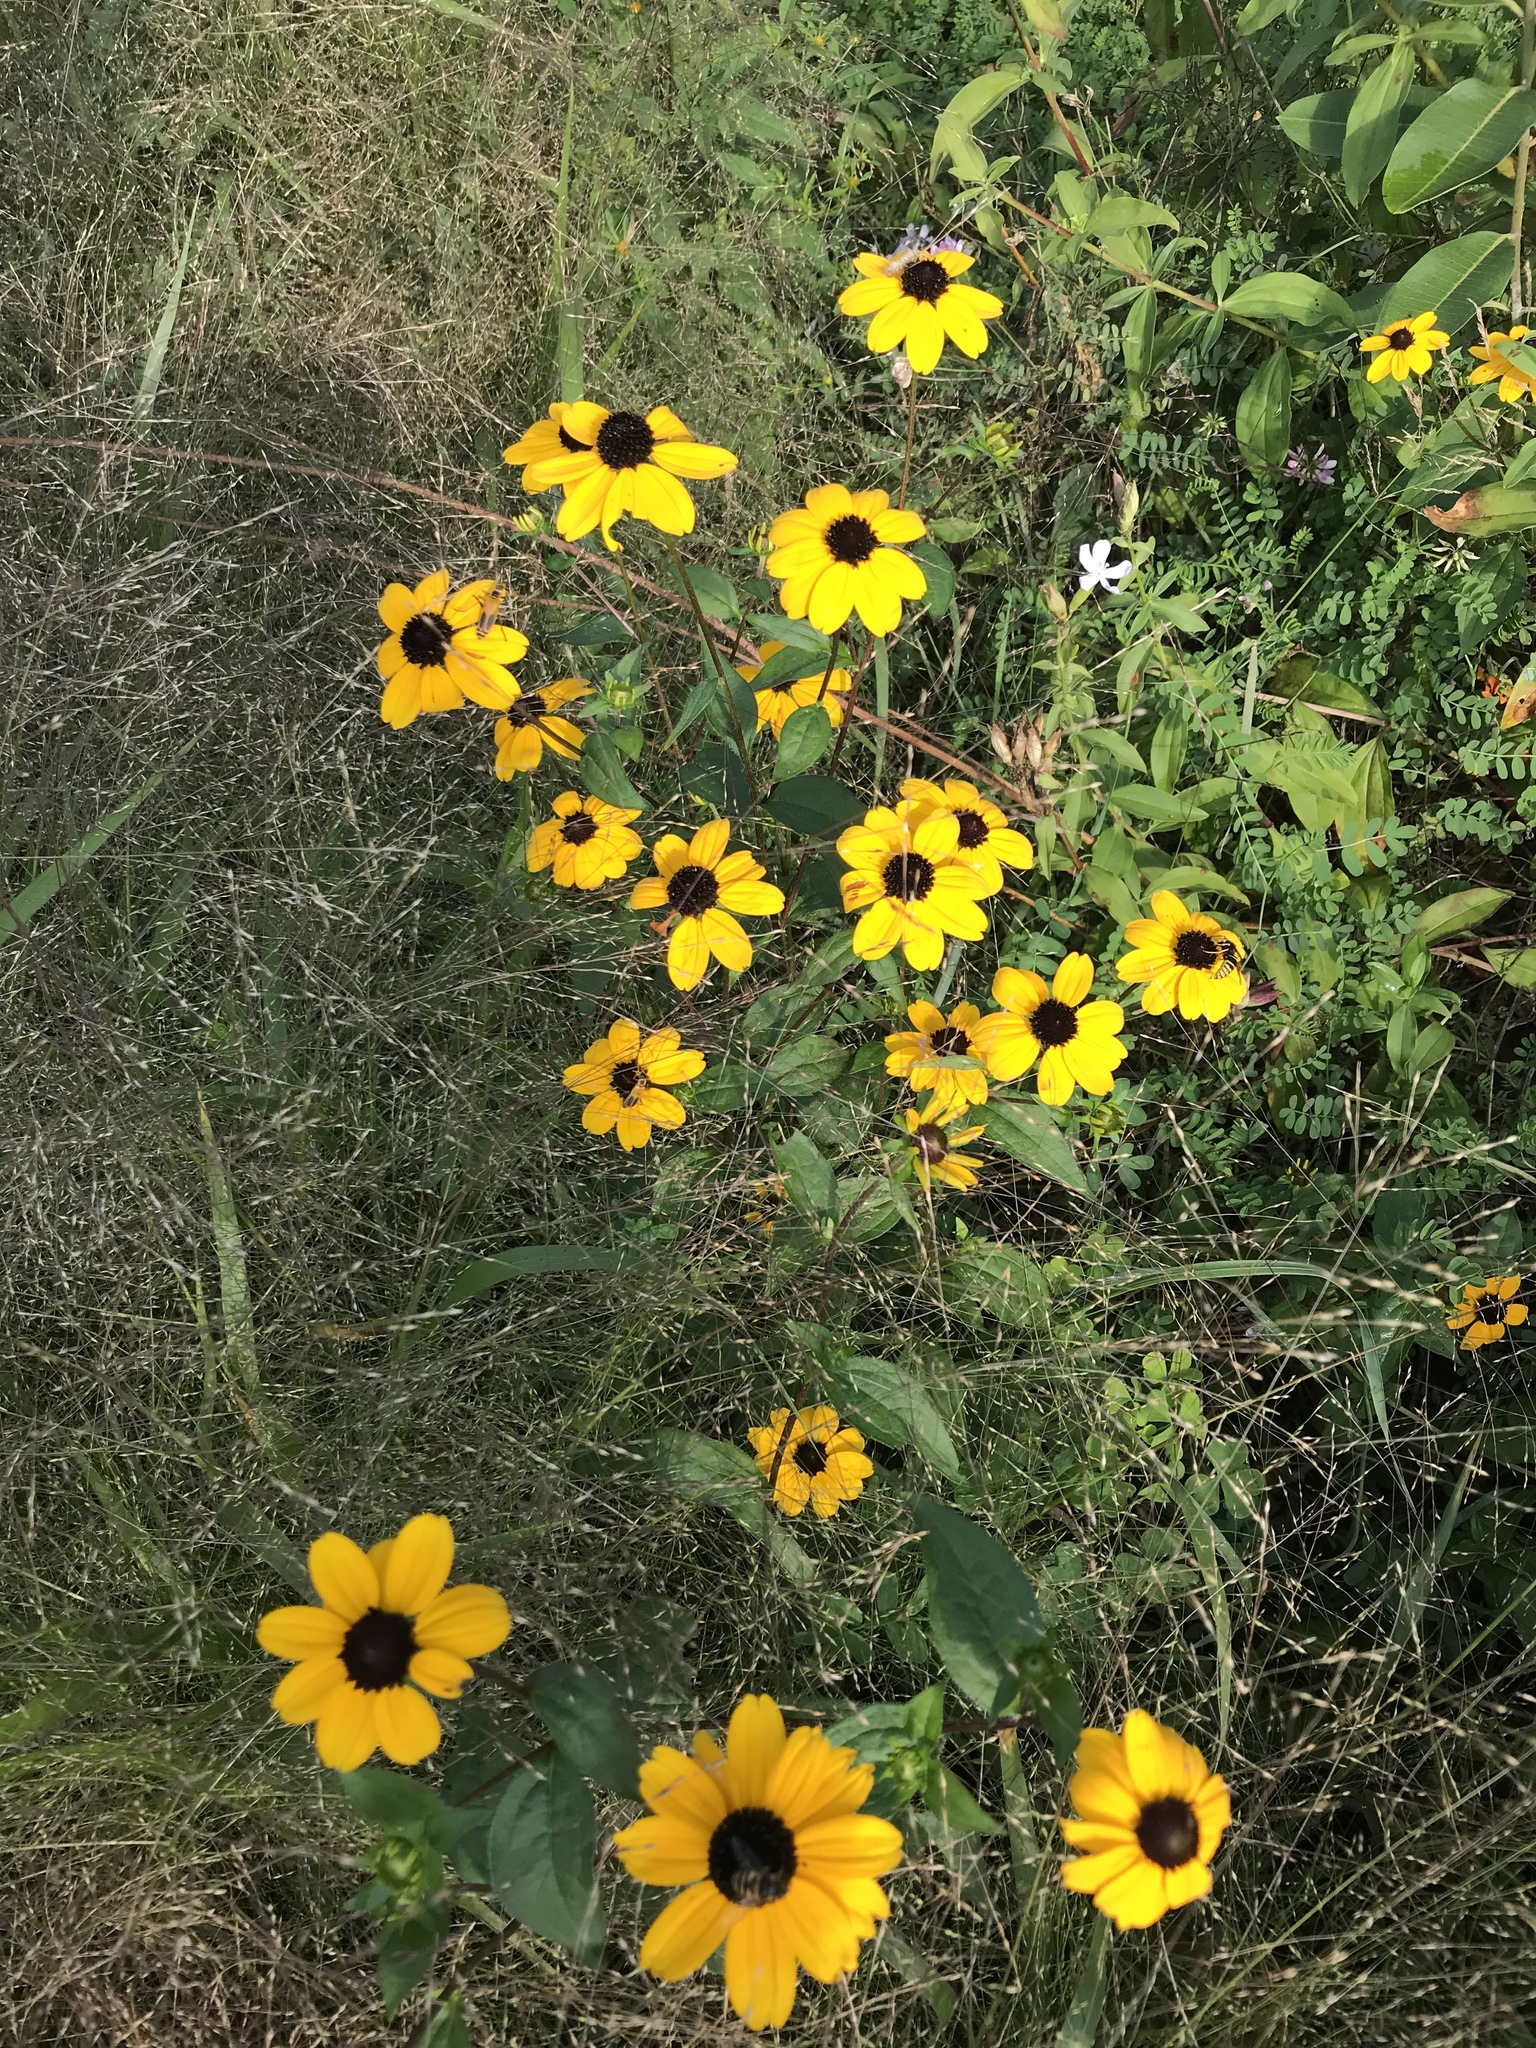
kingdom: Plantae
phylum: Tracheophyta
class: Magnoliopsida
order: Asterales
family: Asteraceae
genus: Rudbeckia
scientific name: Rudbeckia triloba
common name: Thin-leaved coneflower
